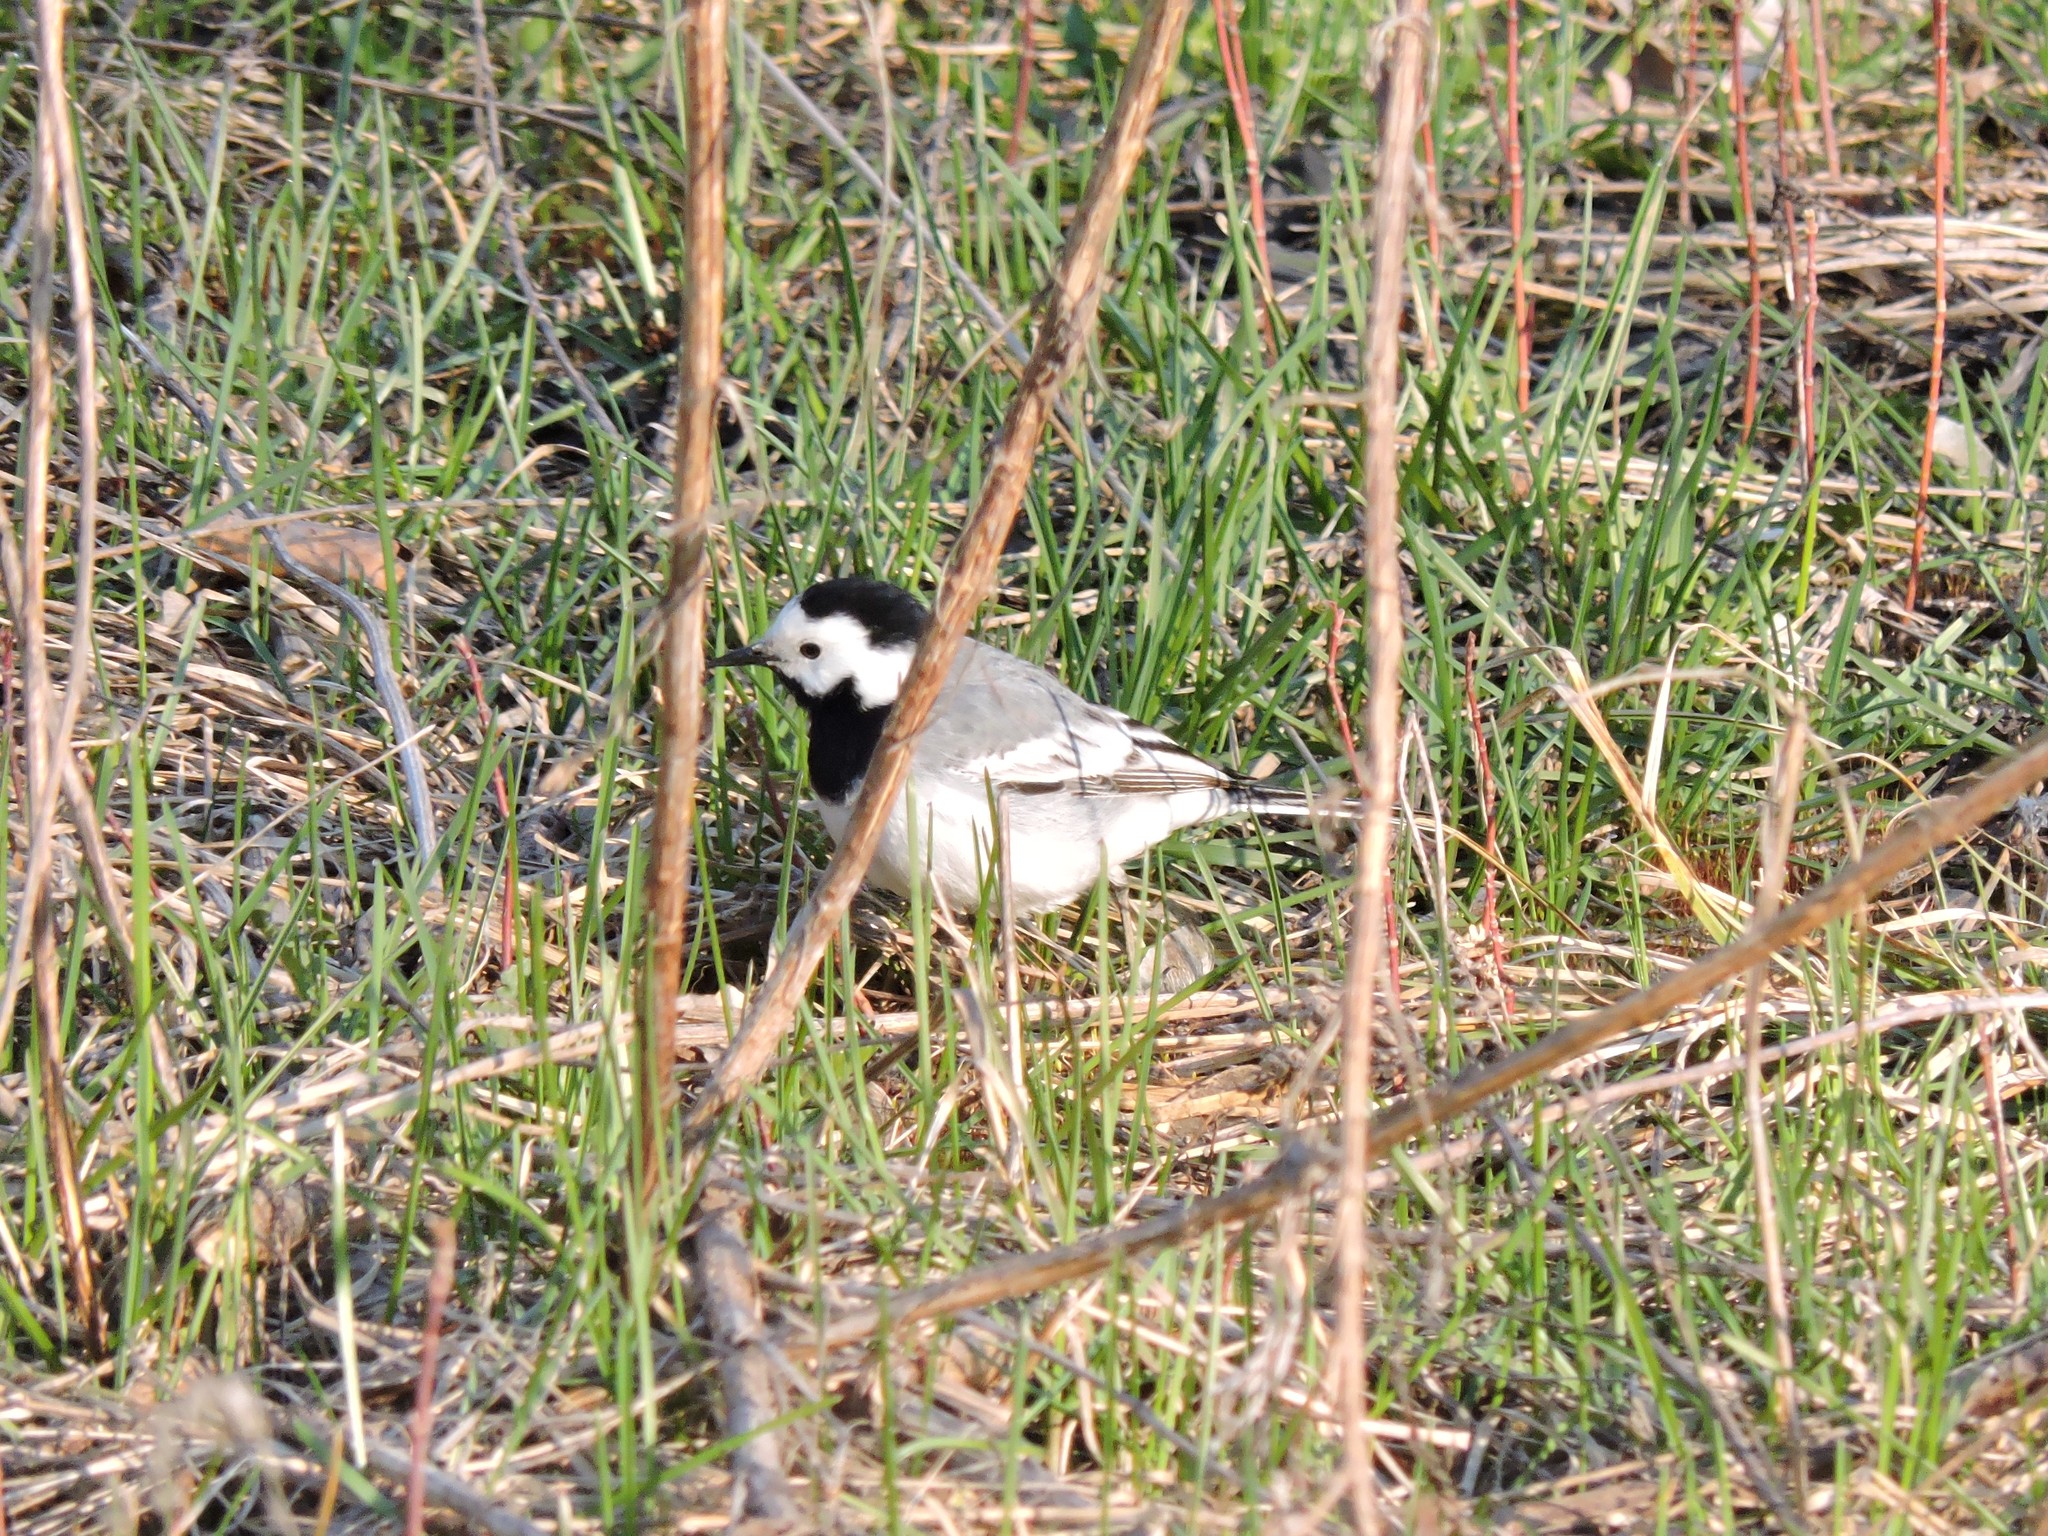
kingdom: Animalia
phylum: Chordata
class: Aves
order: Passeriformes
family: Motacillidae
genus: Motacilla
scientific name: Motacilla alba
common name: White wagtail
